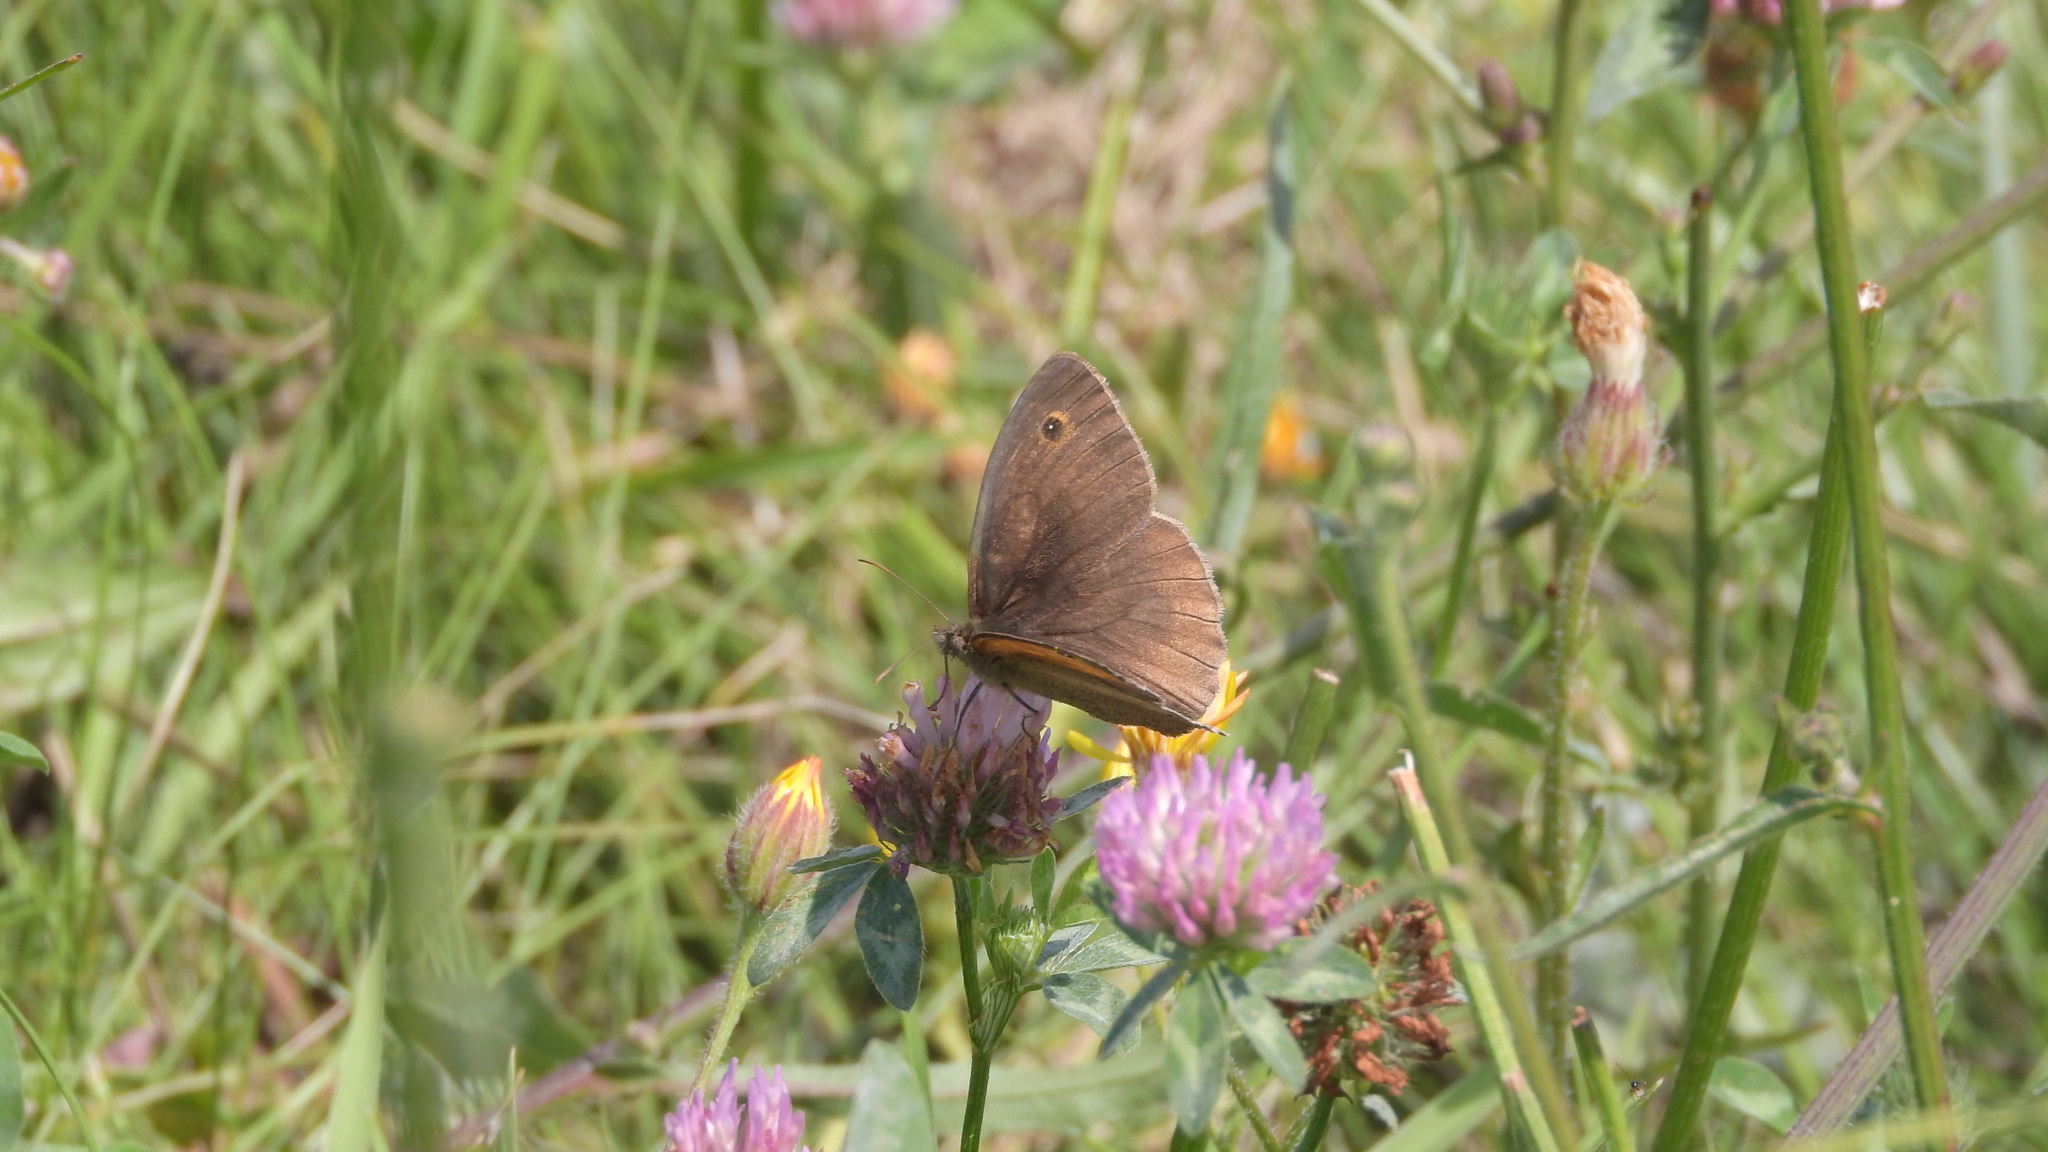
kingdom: Animalia
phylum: Arthropoda
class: Insecta
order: Lepidoptera
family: Nymphalidae
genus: Maniola
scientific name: Maniola jurtina
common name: Meadow brown
